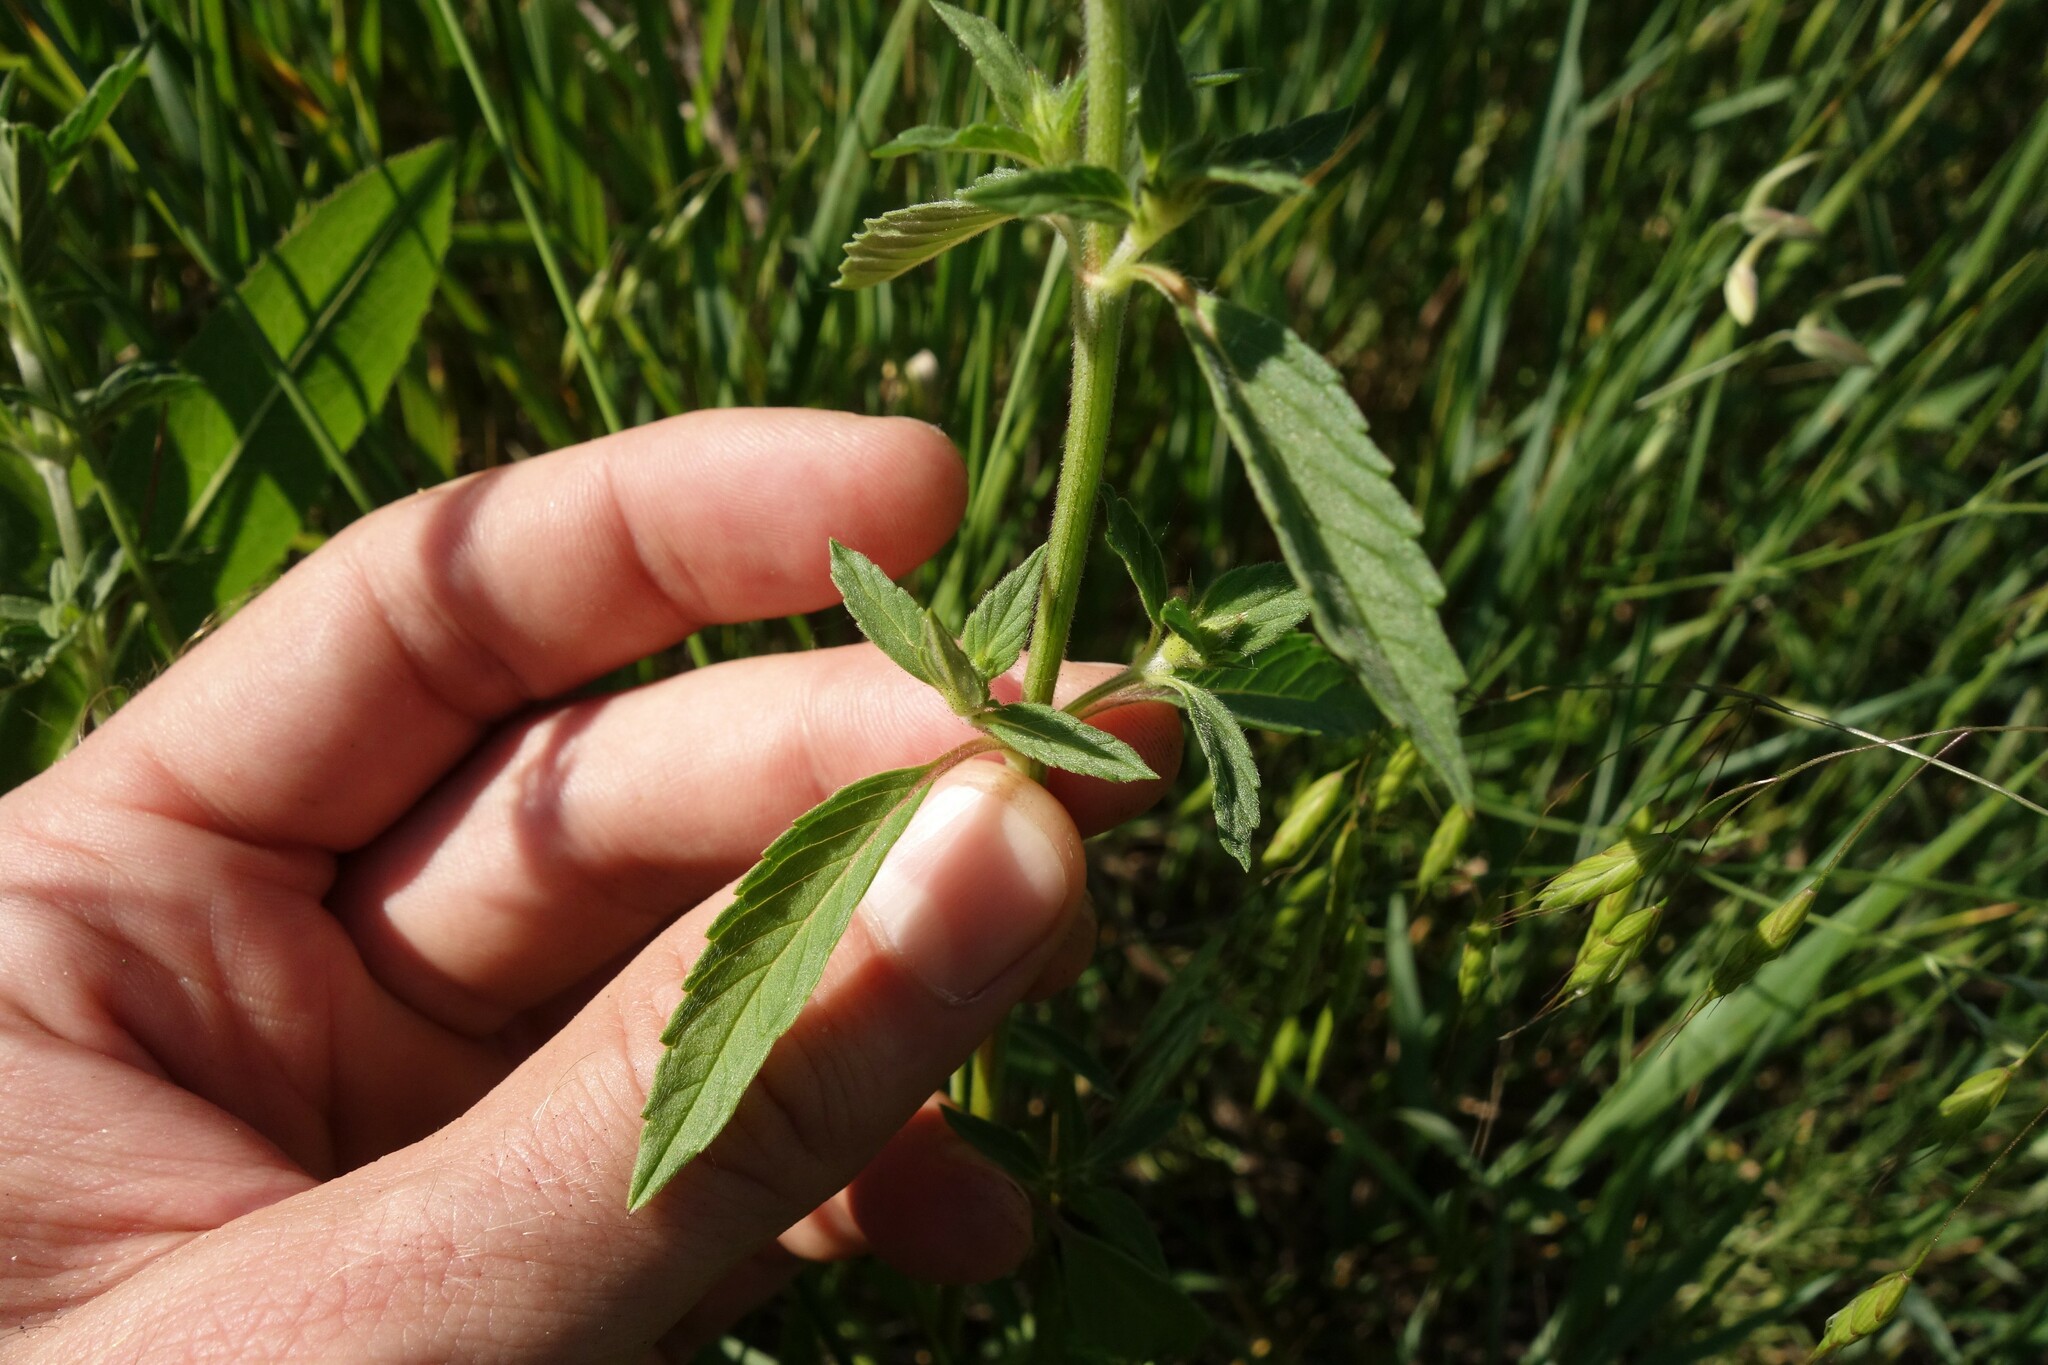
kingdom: Plantae
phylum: Tracheophyta
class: Magnoliopsida
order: Lamiales
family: Lamiaceae
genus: Galeopsis
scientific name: Galeopsis ladanum
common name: Broad-leaved hemp-nettle
